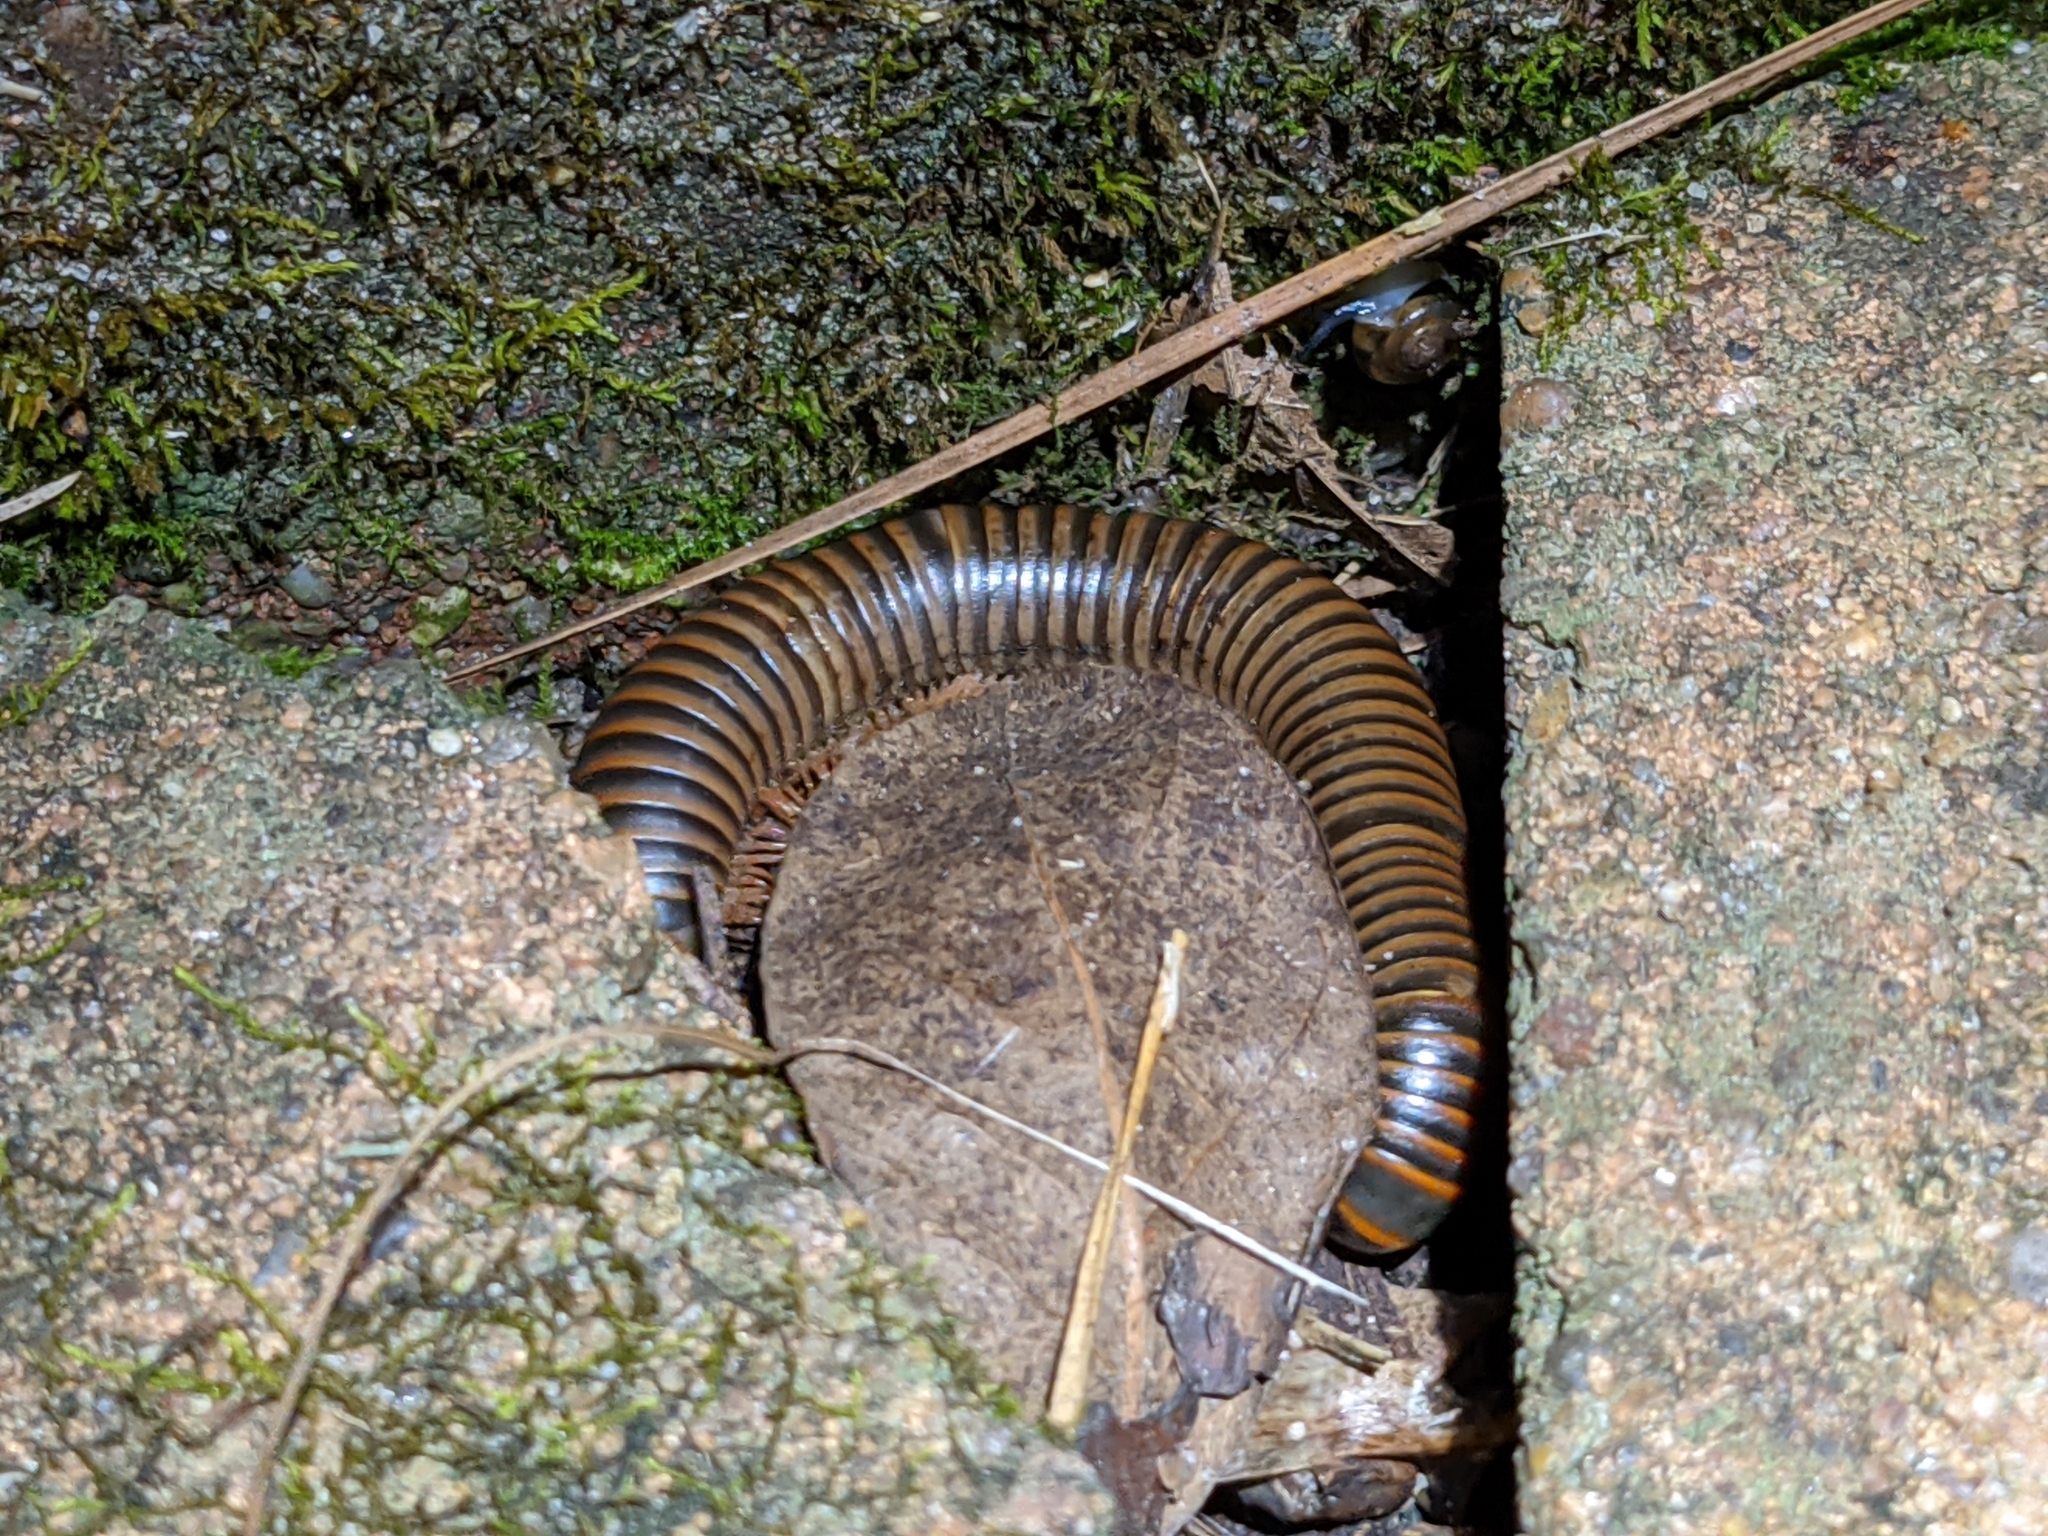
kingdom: Animalia
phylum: Arthropoda
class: Diplopoda
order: Spirobolida
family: Spirobolidae
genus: Narceus
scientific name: Narceus
